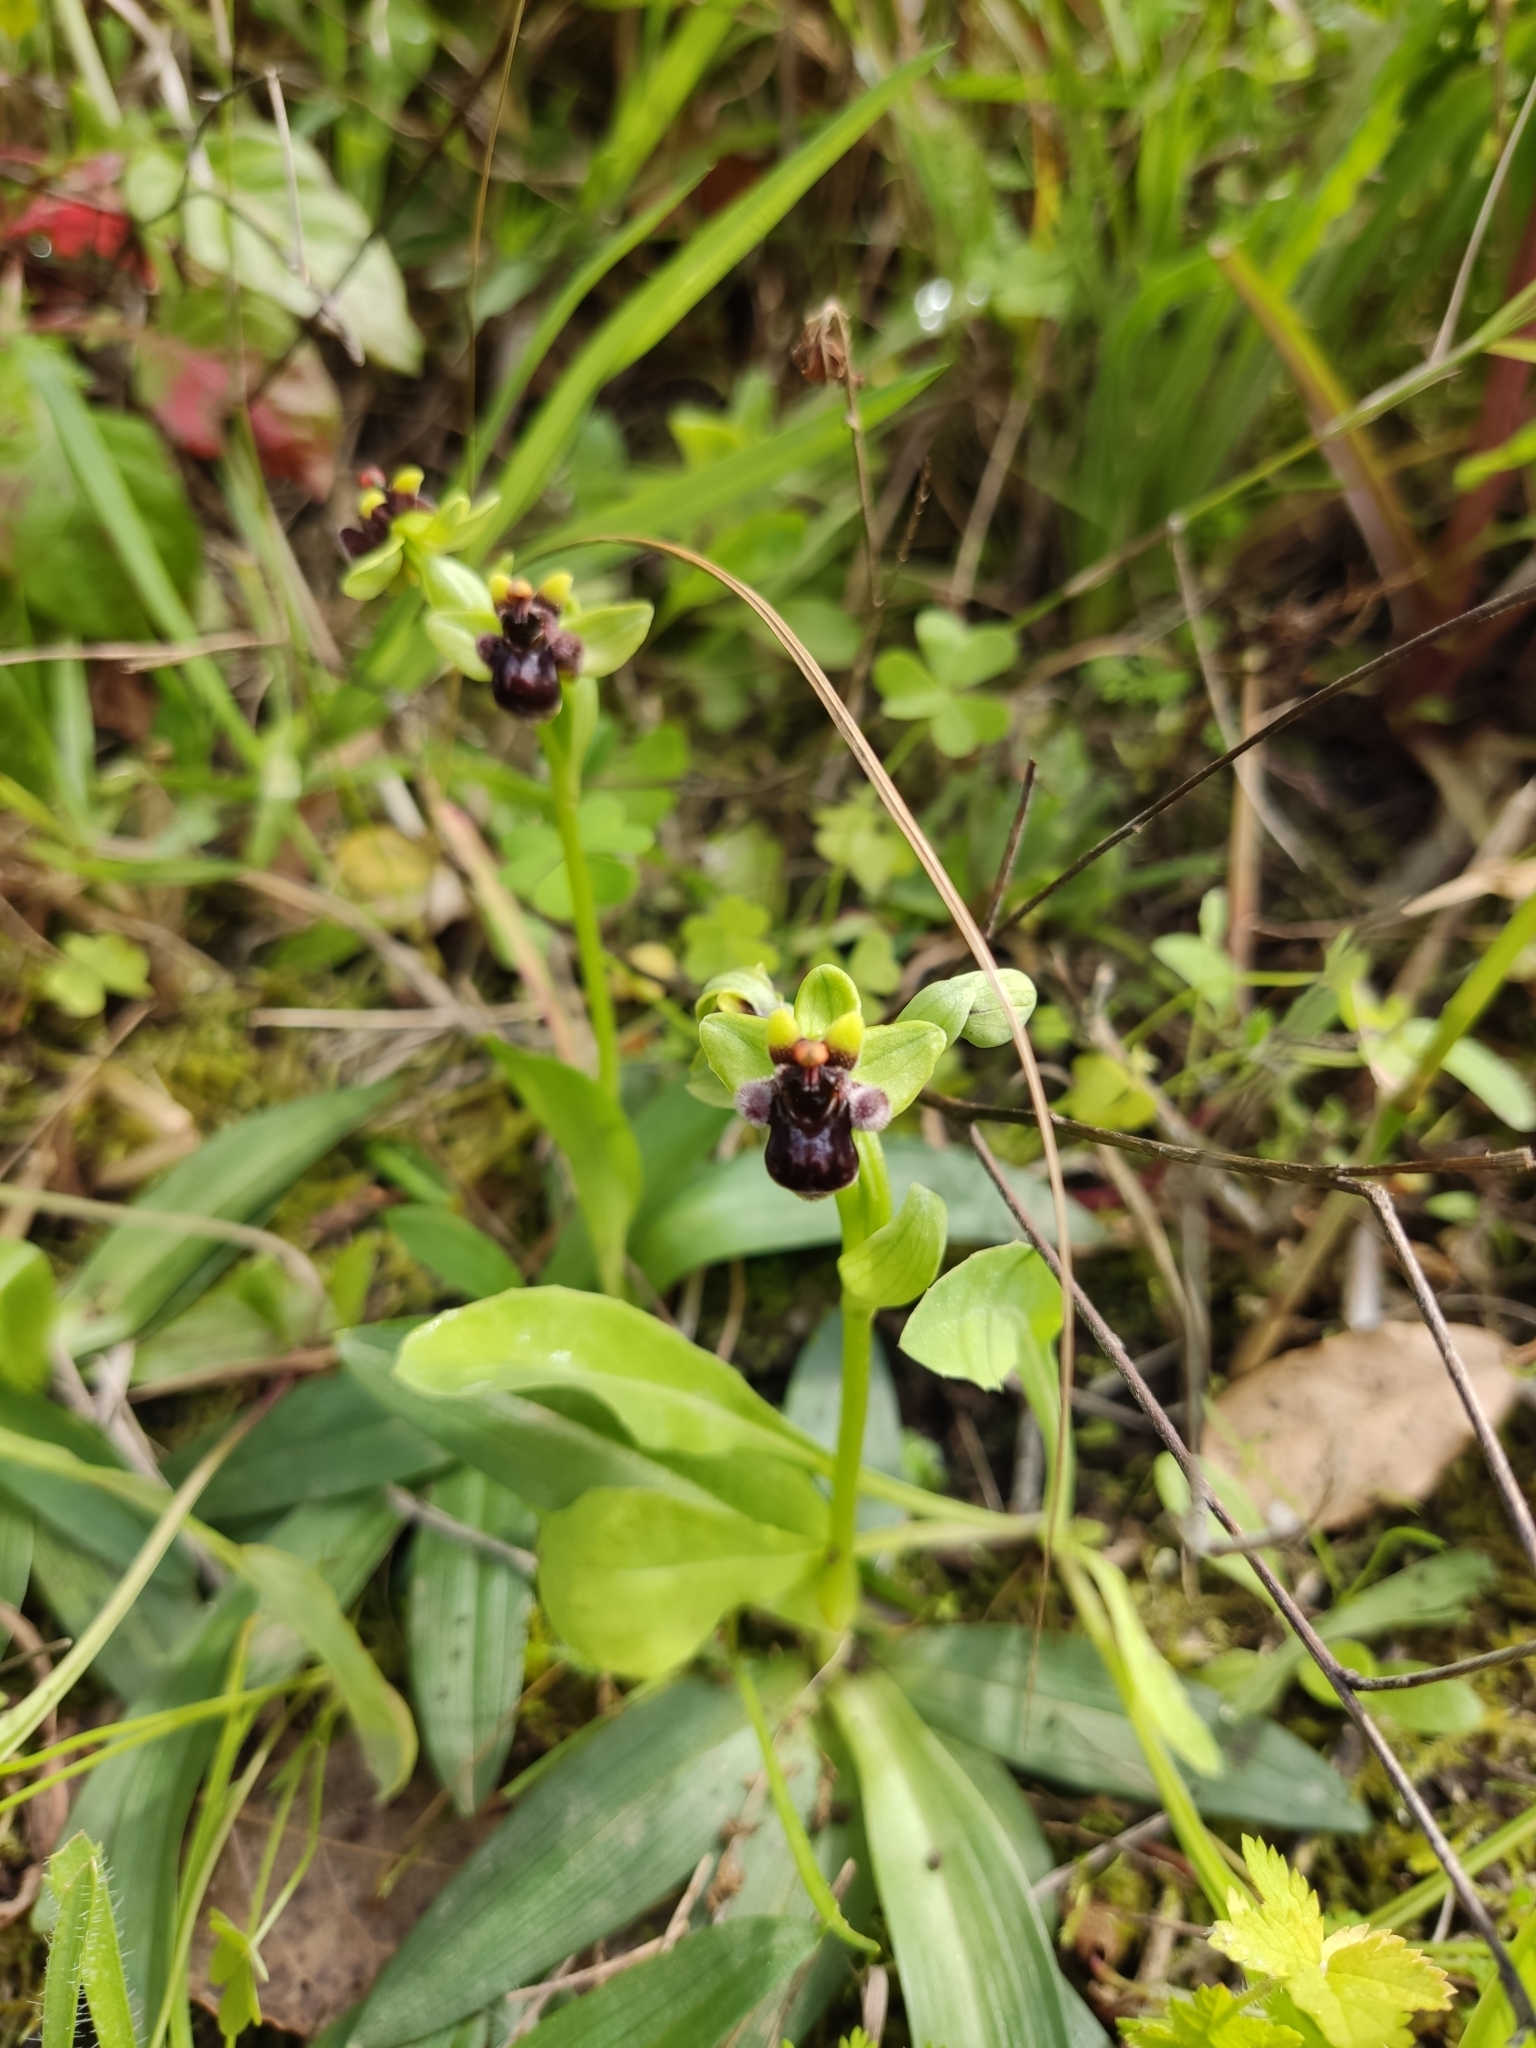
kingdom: Plantae
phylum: Tracheophyta
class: Liliopsida
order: Asparagales
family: Orchidaceae
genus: Ophrys
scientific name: Ophrys bombyliflora
